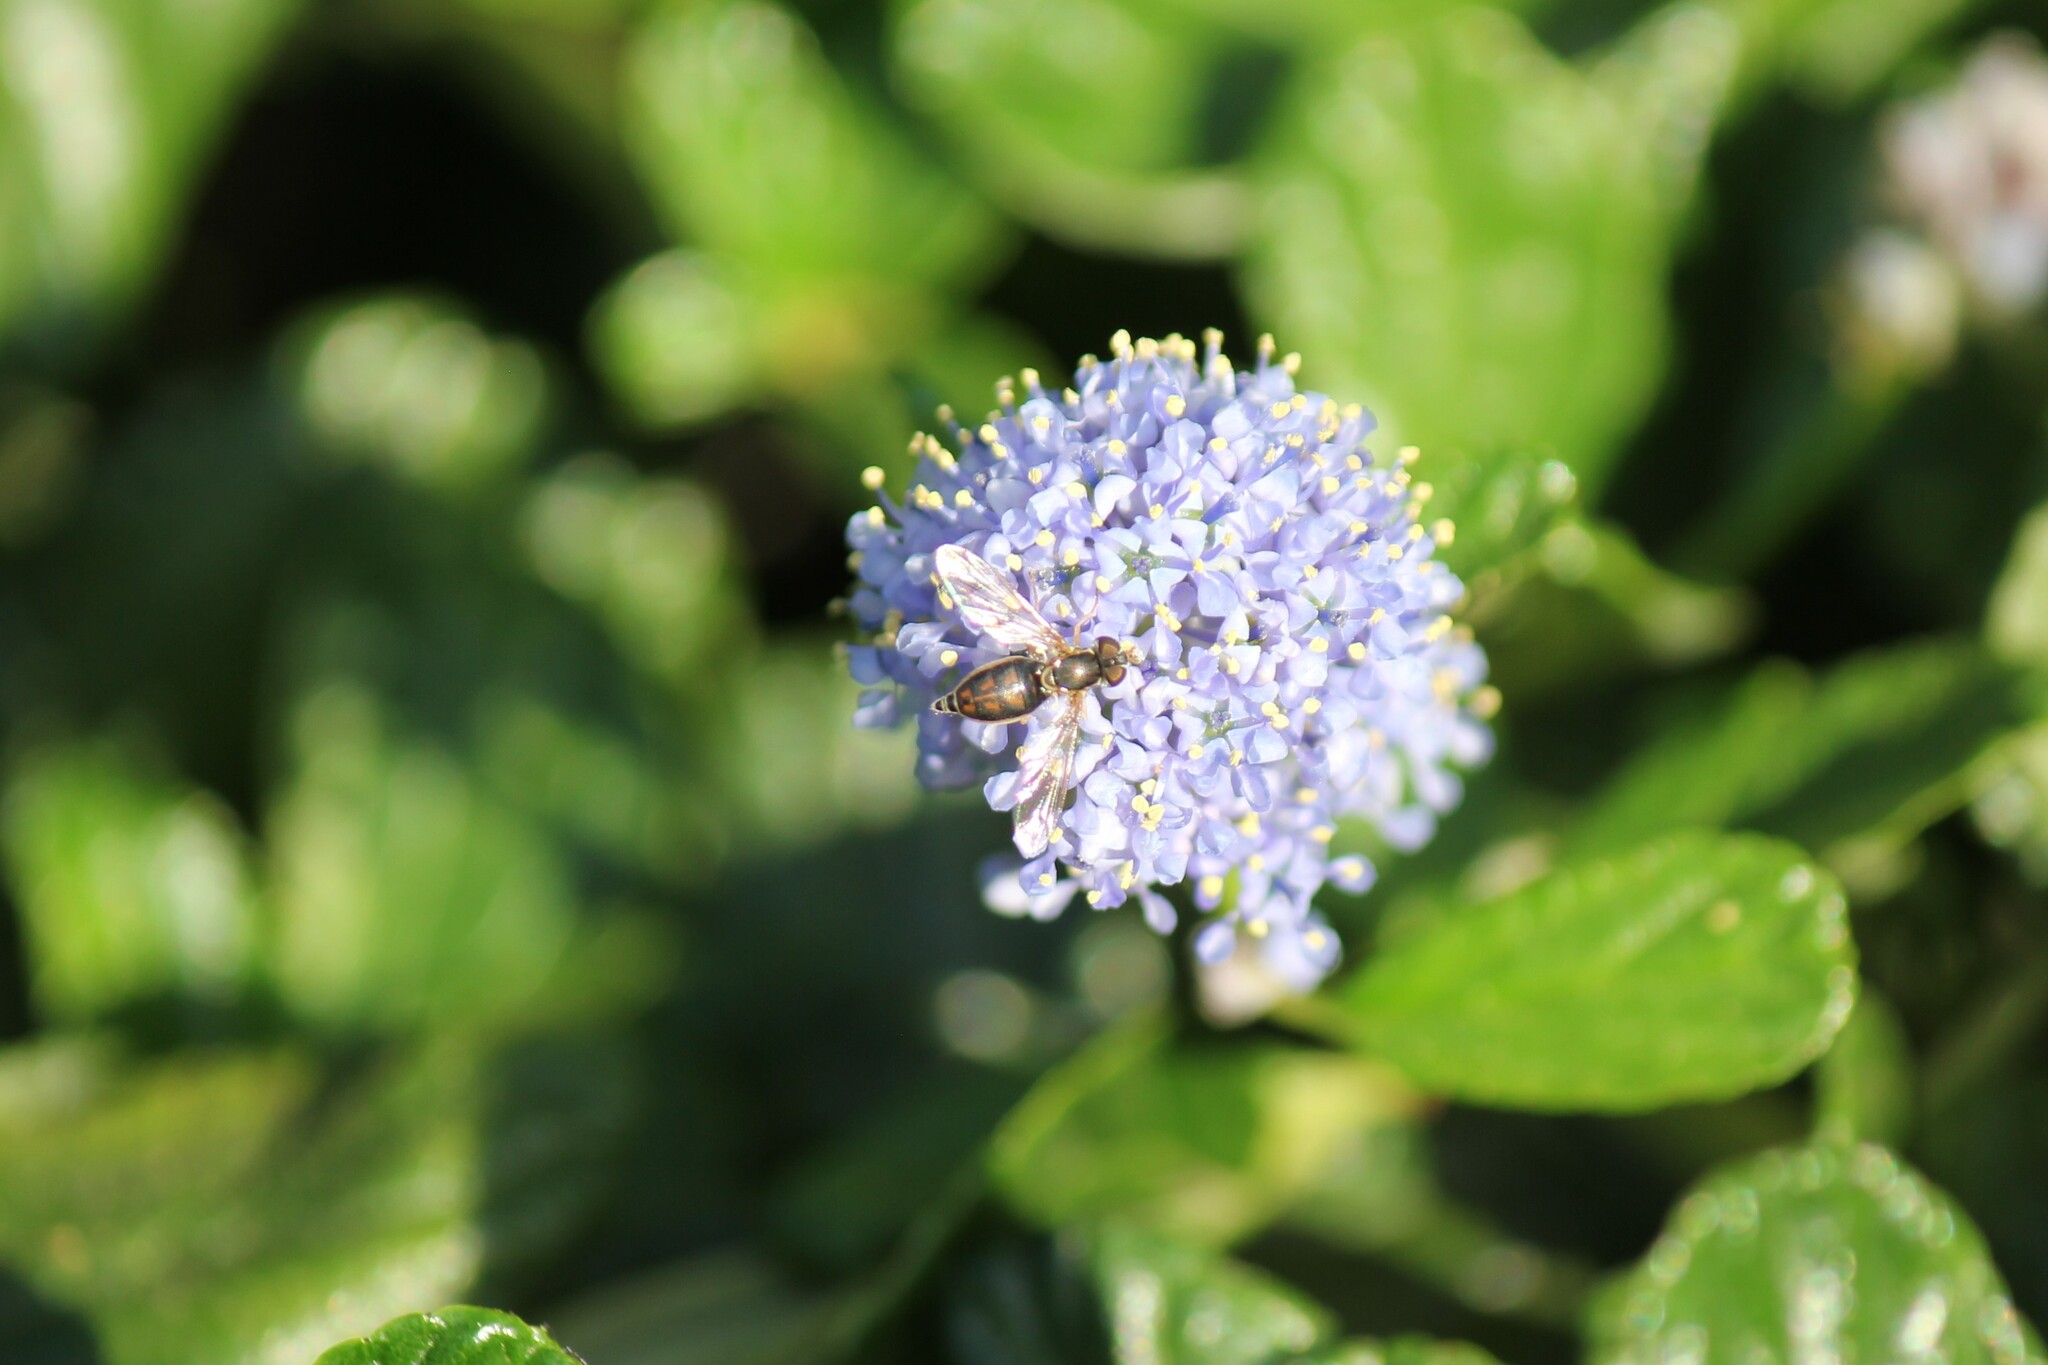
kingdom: Animalia
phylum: Arthropoda
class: Insecta
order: Diptera
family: Syrphidae
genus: Toxomerus
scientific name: Toxomerus marginatus
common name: Syrphid fly
